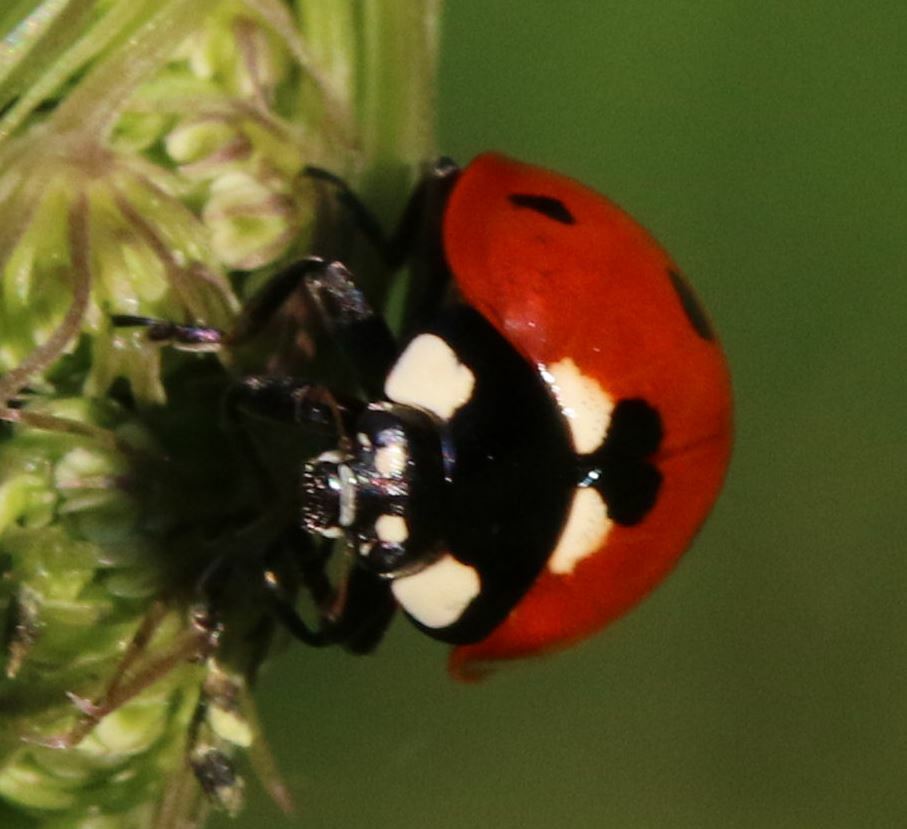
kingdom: Animalia
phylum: Arthropoda
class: Insecta
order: Coleoptera
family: Coccinellidae
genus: Coccinella
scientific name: Coccinella septempunctata
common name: Sevenspotted lady beetle
